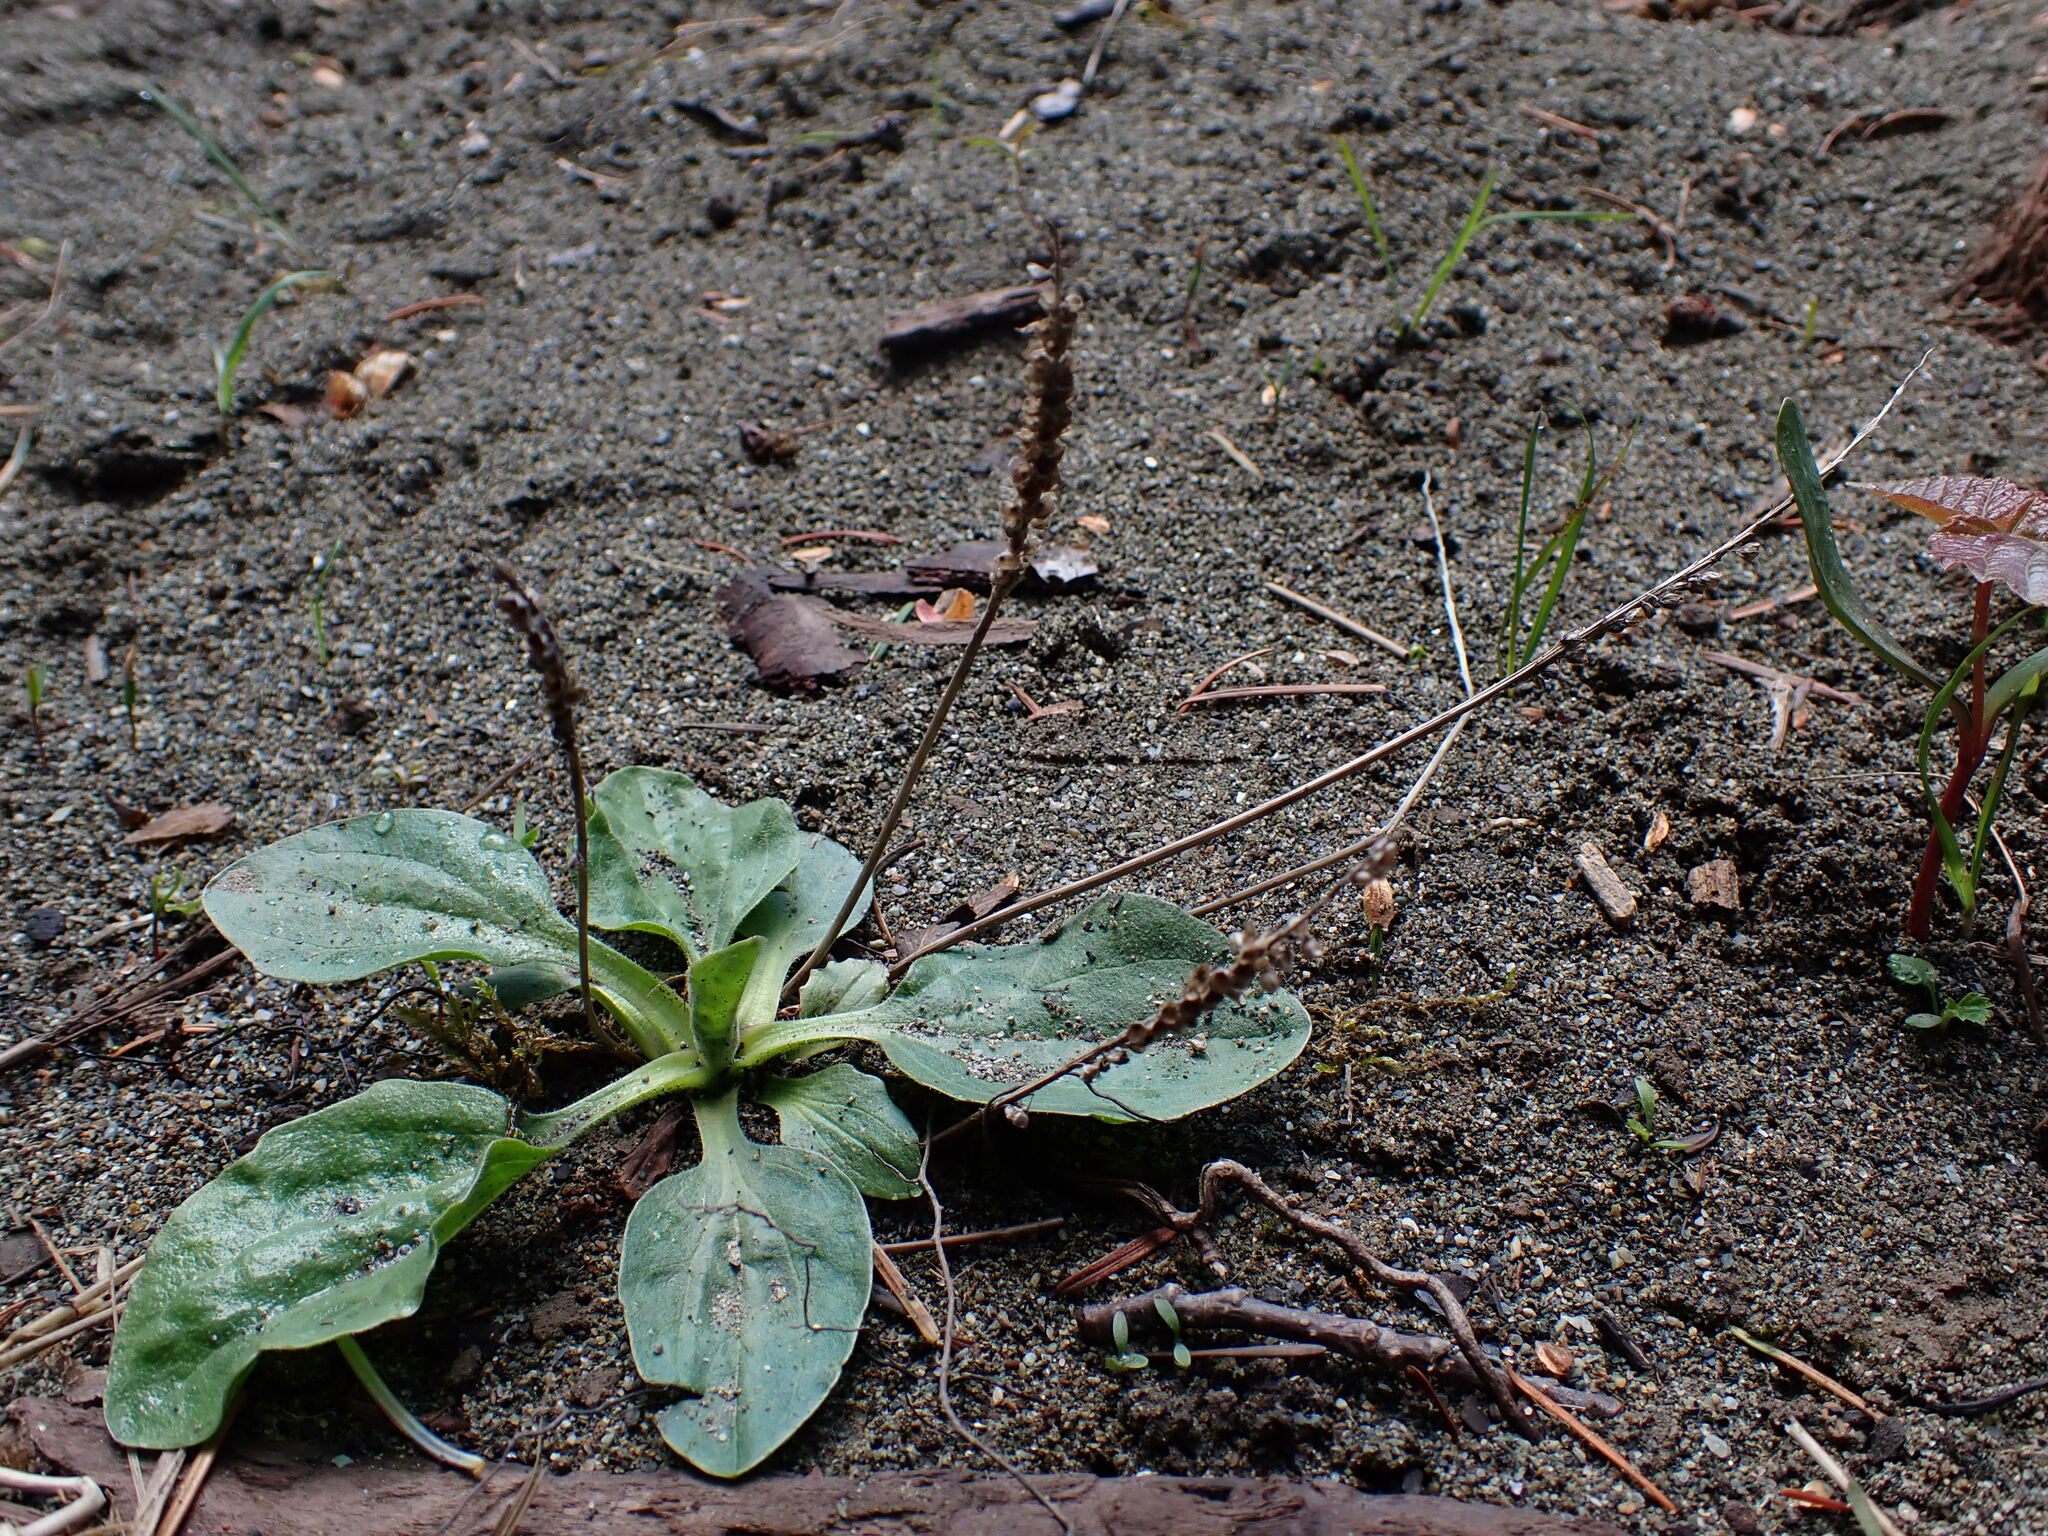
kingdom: Plantae
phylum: Tracheophyta
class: Magnoliopsida
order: Lamiales
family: Plantaginaceae
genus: Plantago
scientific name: Plantago major
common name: Common plantain
